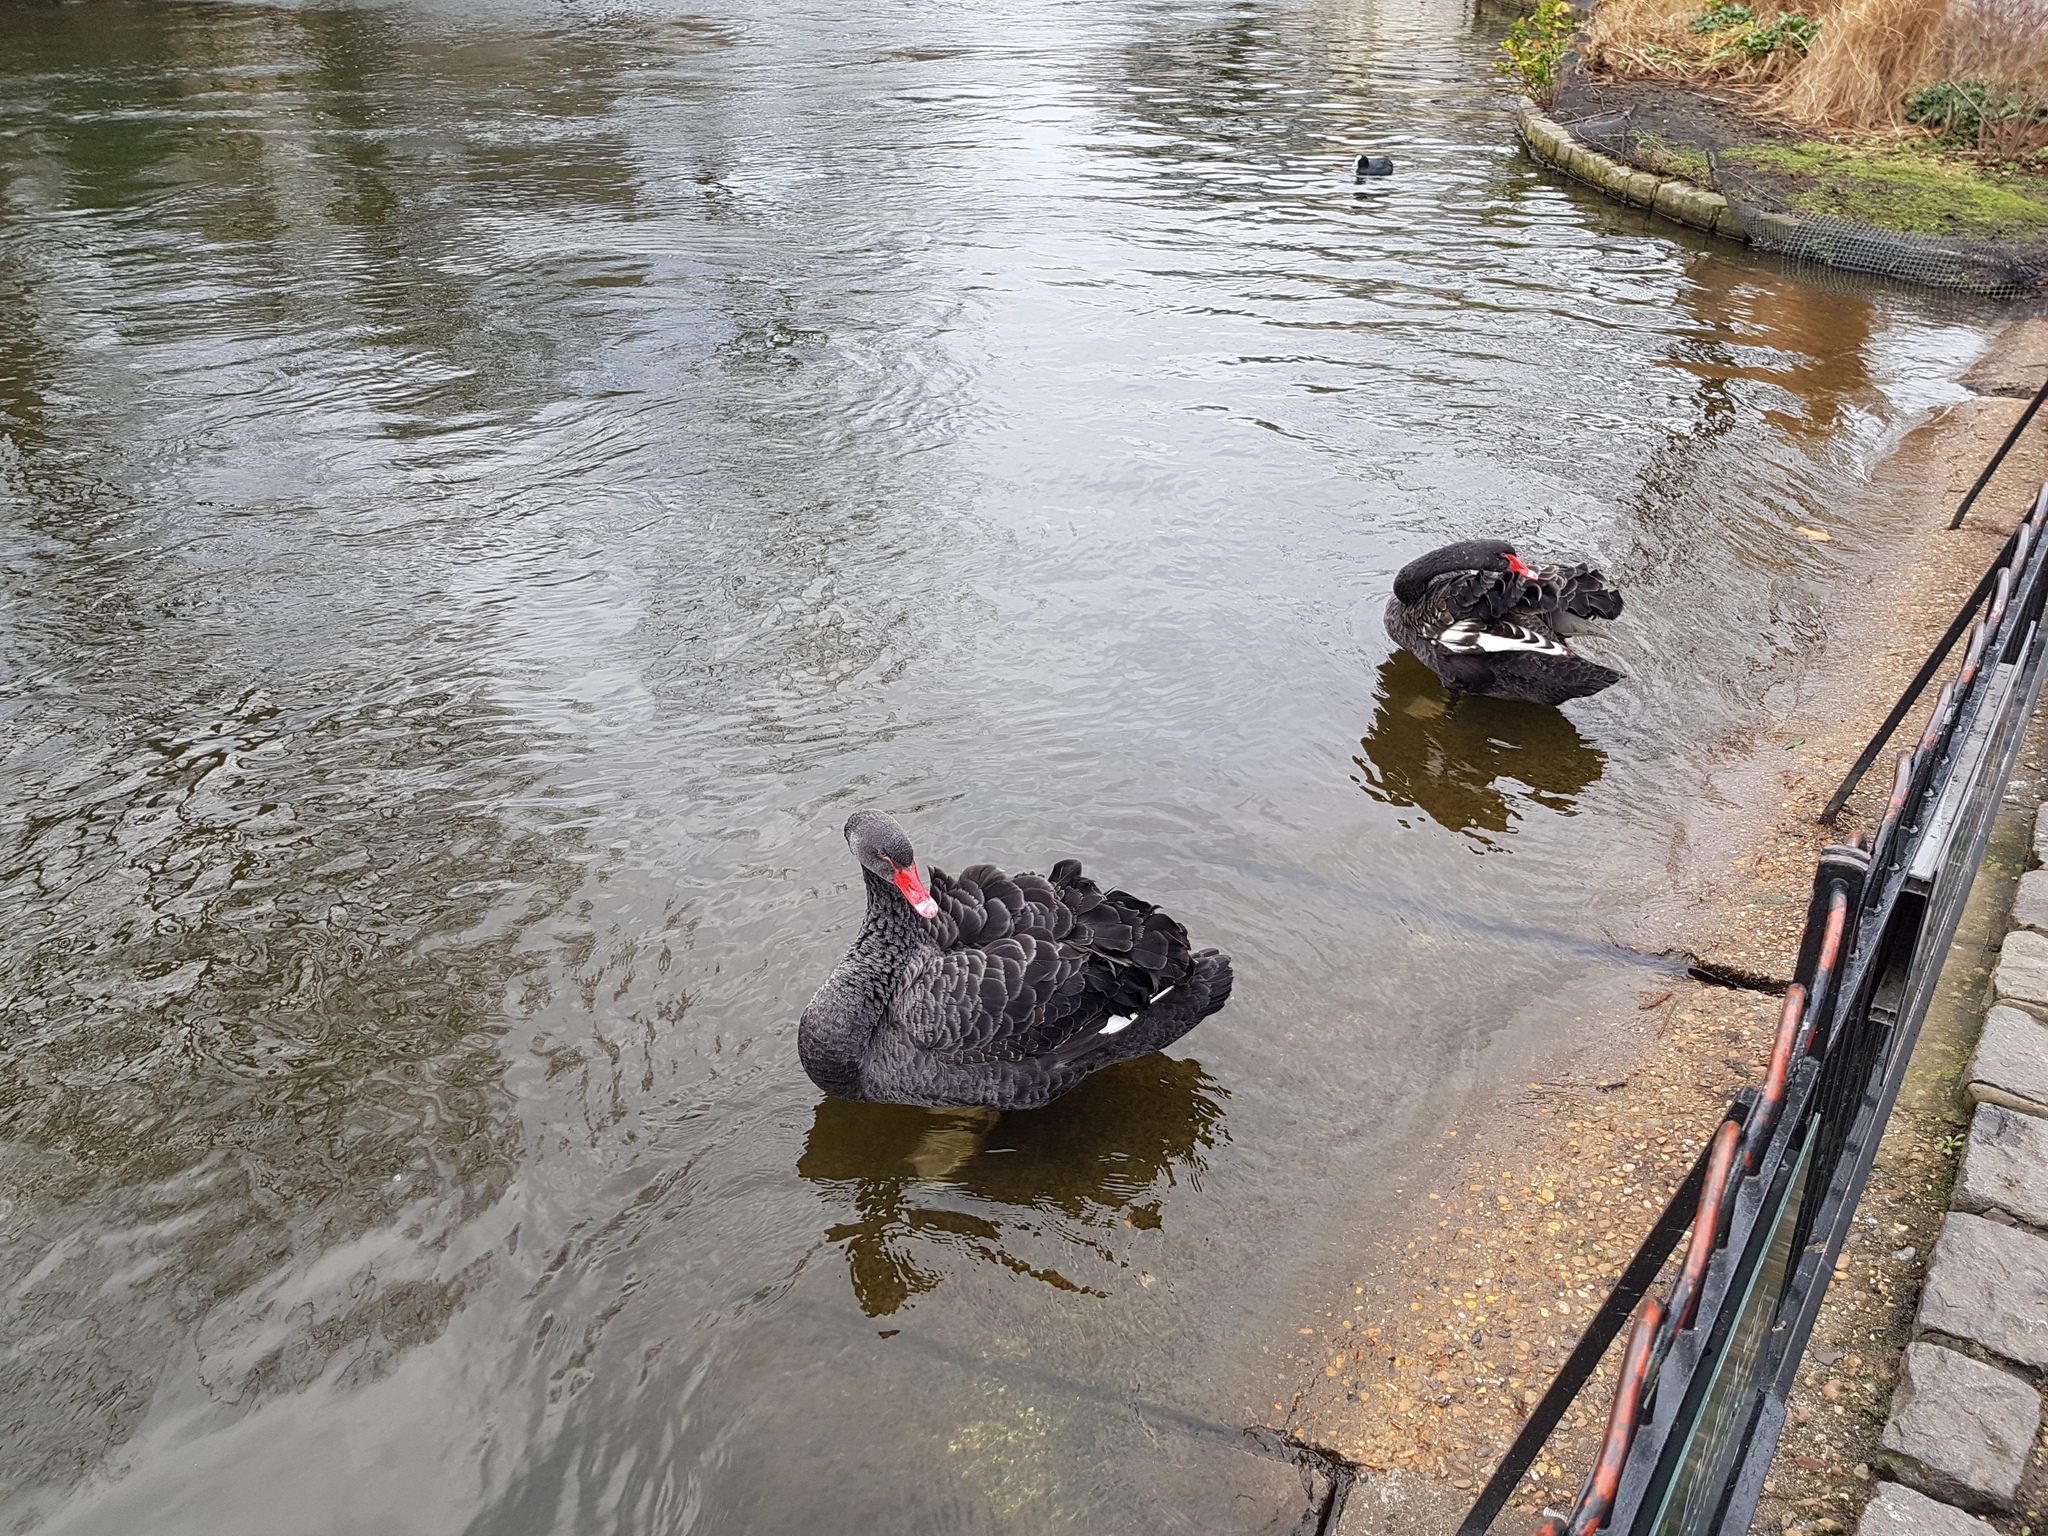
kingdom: Animalia
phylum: Chordata
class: Aves
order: Anseriformes
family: Anatidae
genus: Cygnus
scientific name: Cygnus atratus
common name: Black swan
